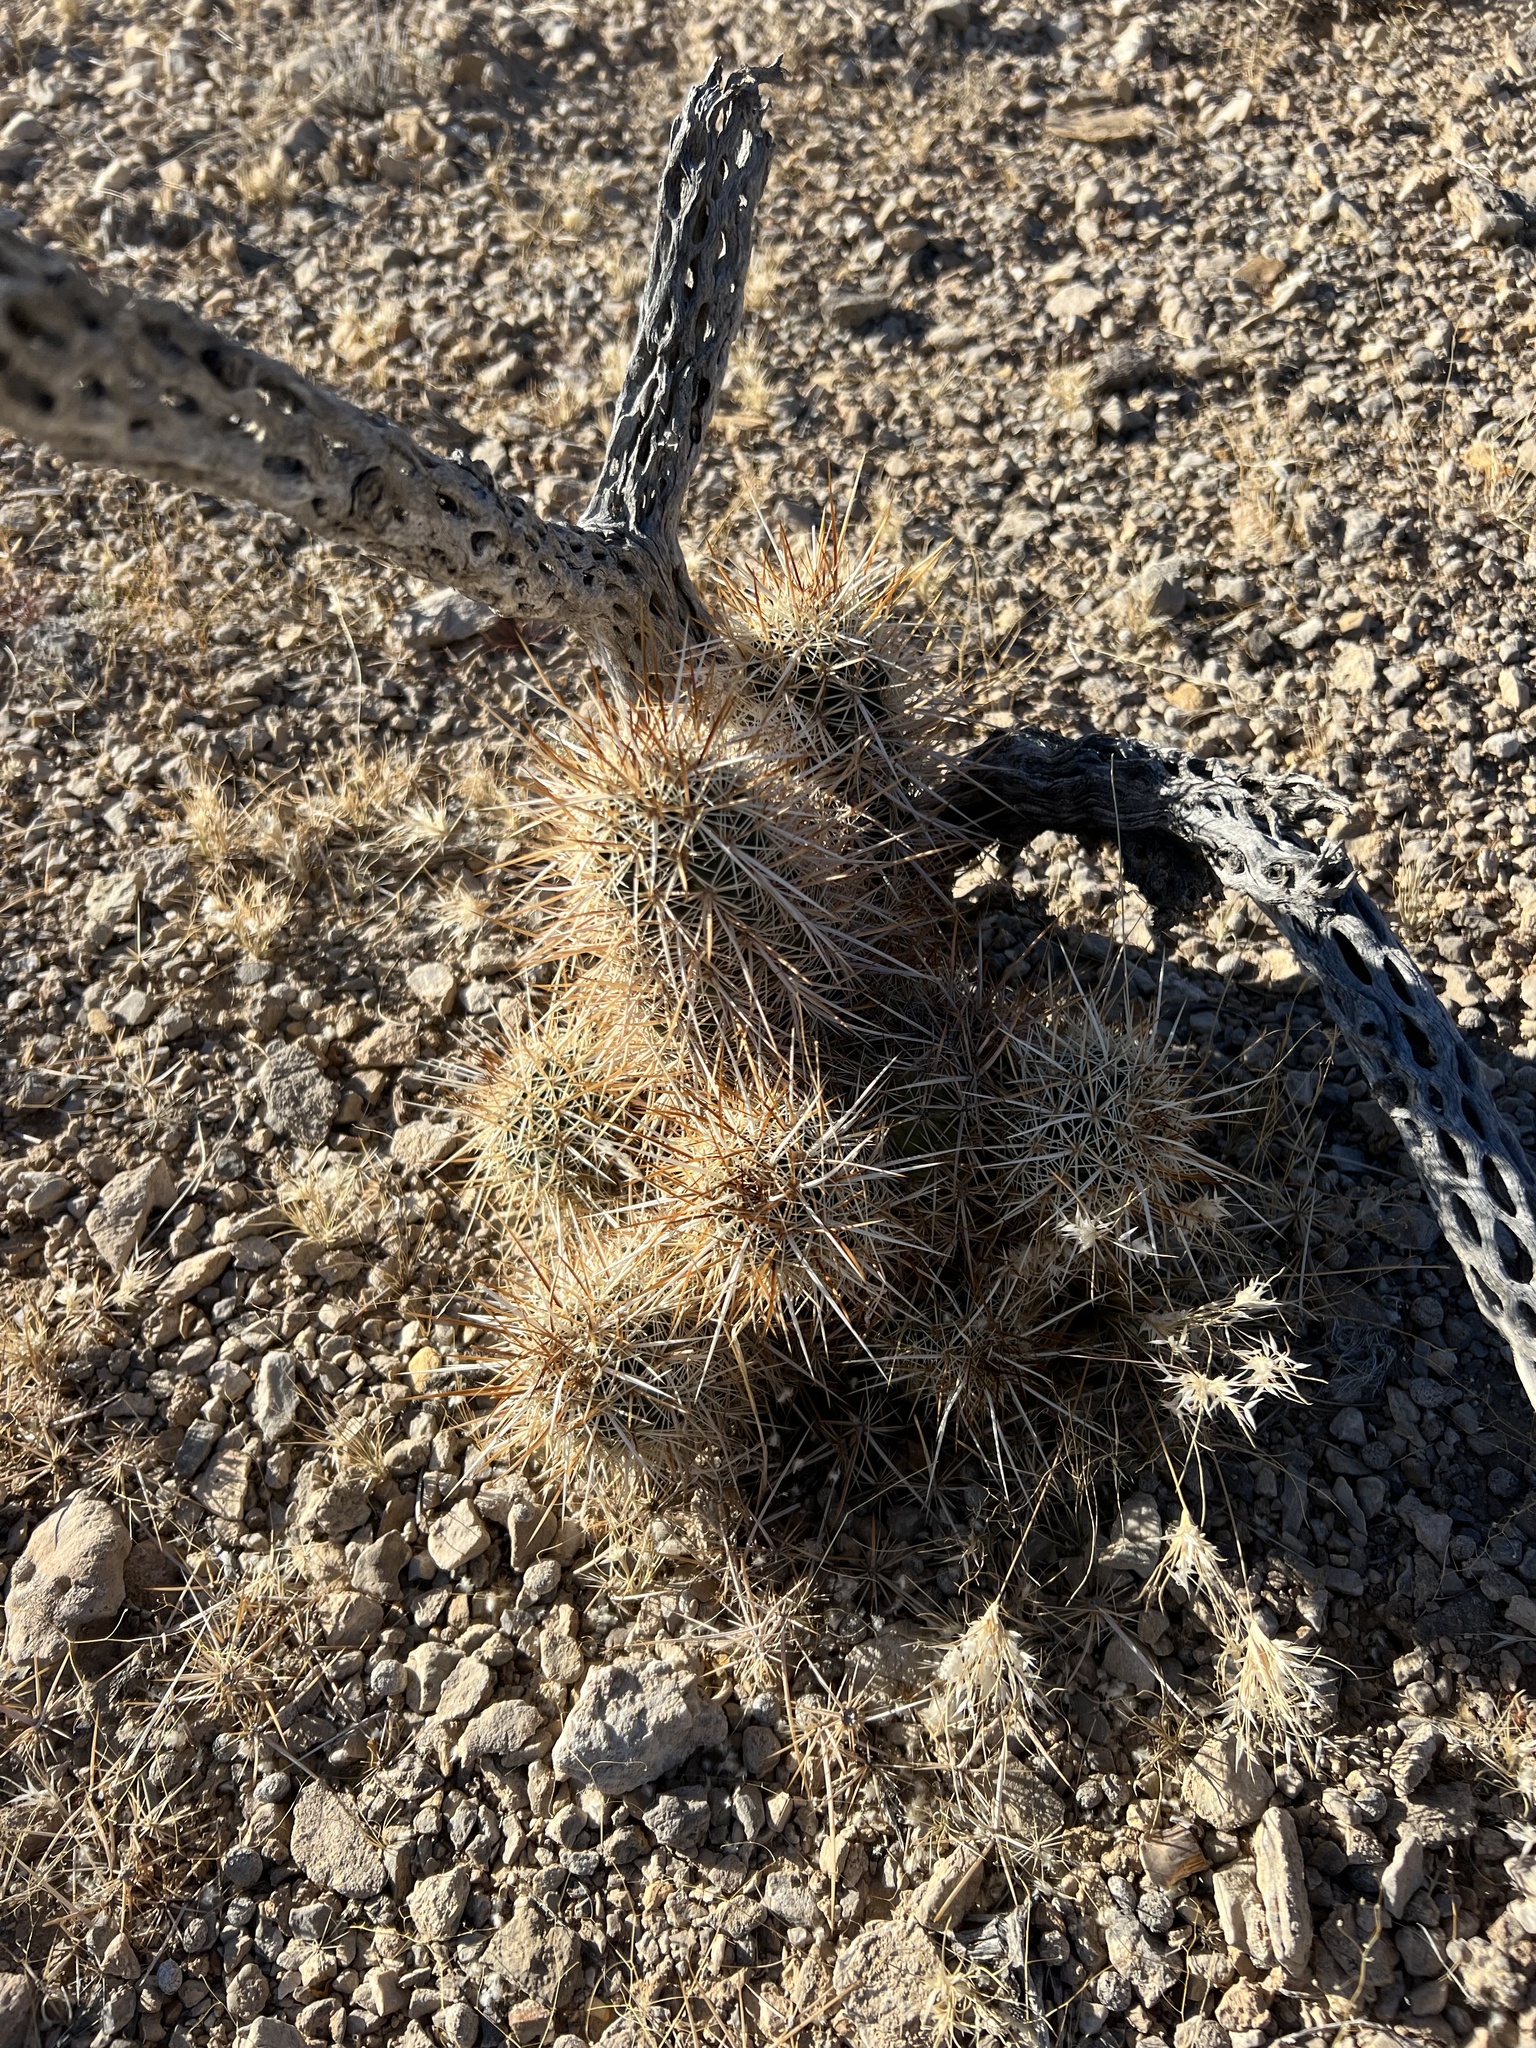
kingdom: Plantae
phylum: Tracheophyta
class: Magnoliopsida
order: Caryophyllales
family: Cactaceae
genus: Echinocereus
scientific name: Echinocereus engelmannii
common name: Engelmann's hedgehog cactus
